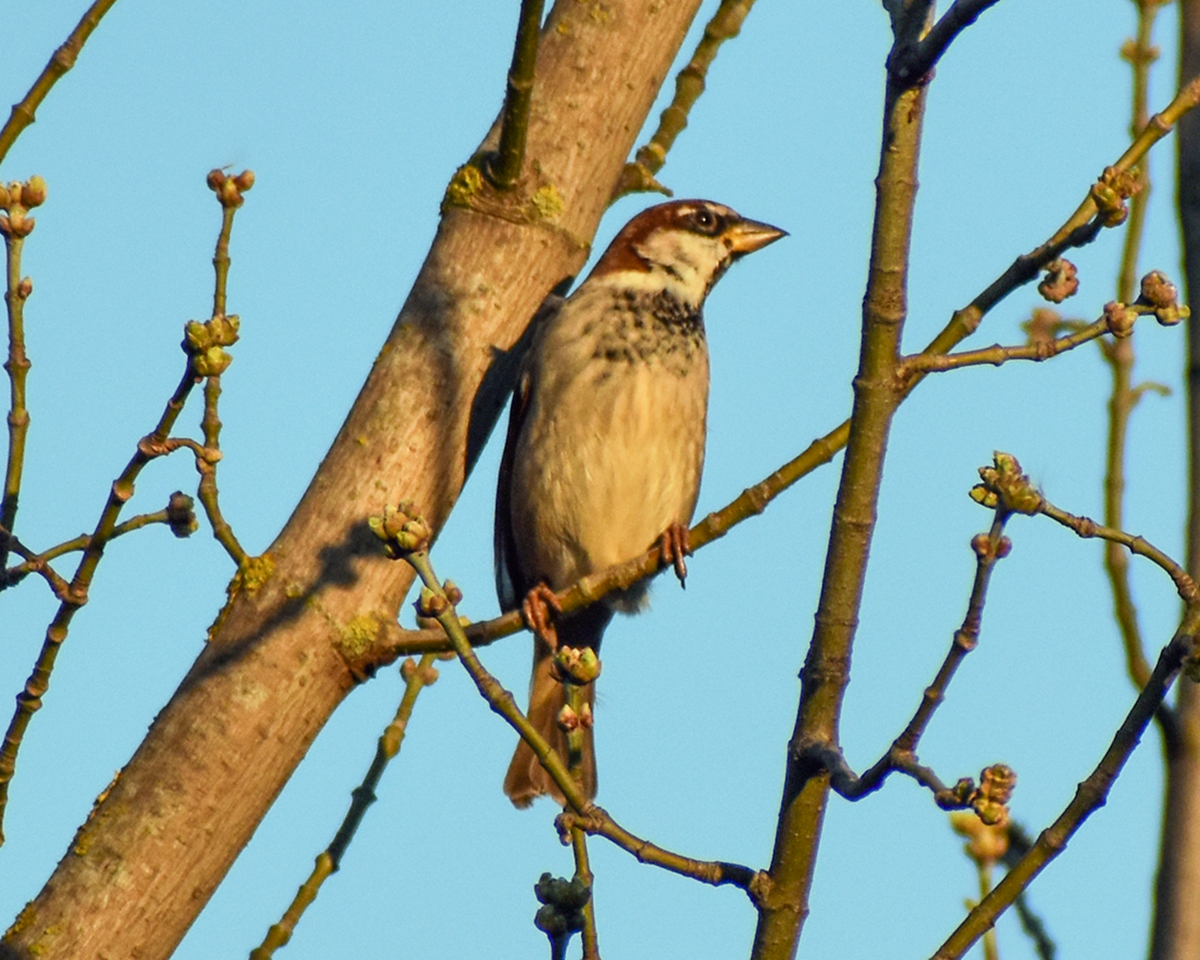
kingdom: Animalia
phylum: Chordata
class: Aves
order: Passeriformes
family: Passeridae
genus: Passer
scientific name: Passer italiae
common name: Italian sparrow
